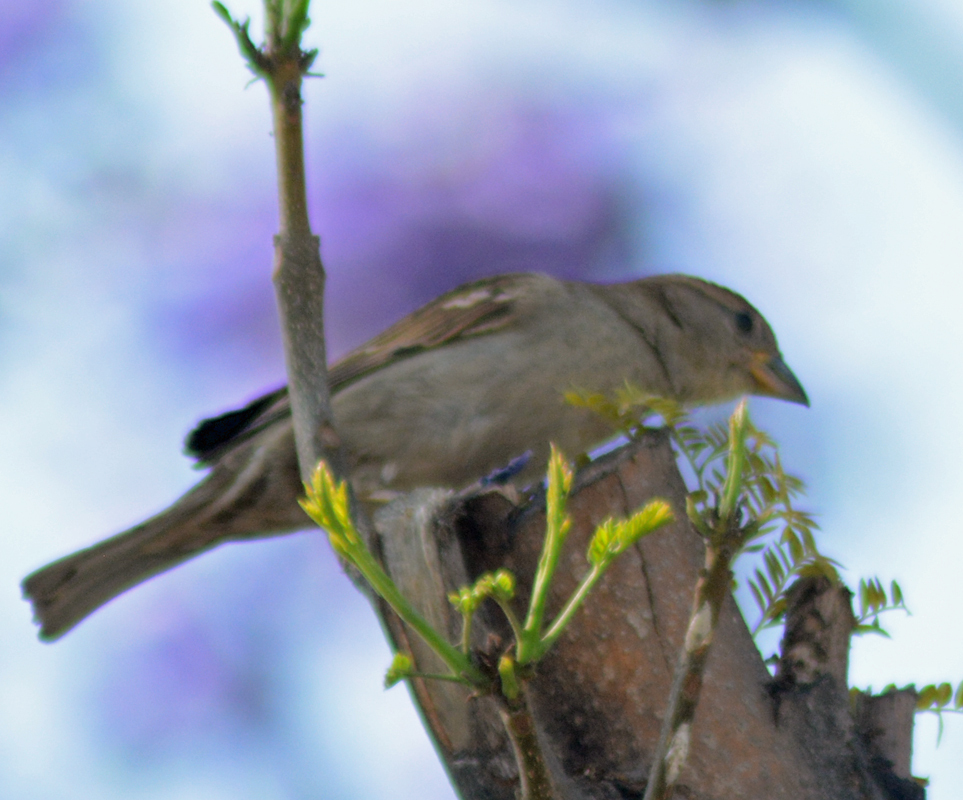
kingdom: Animalia
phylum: Chordata
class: Aves
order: Passeriformes
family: Passeridae
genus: Passer
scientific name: Passer domesticus
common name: House sparrow
